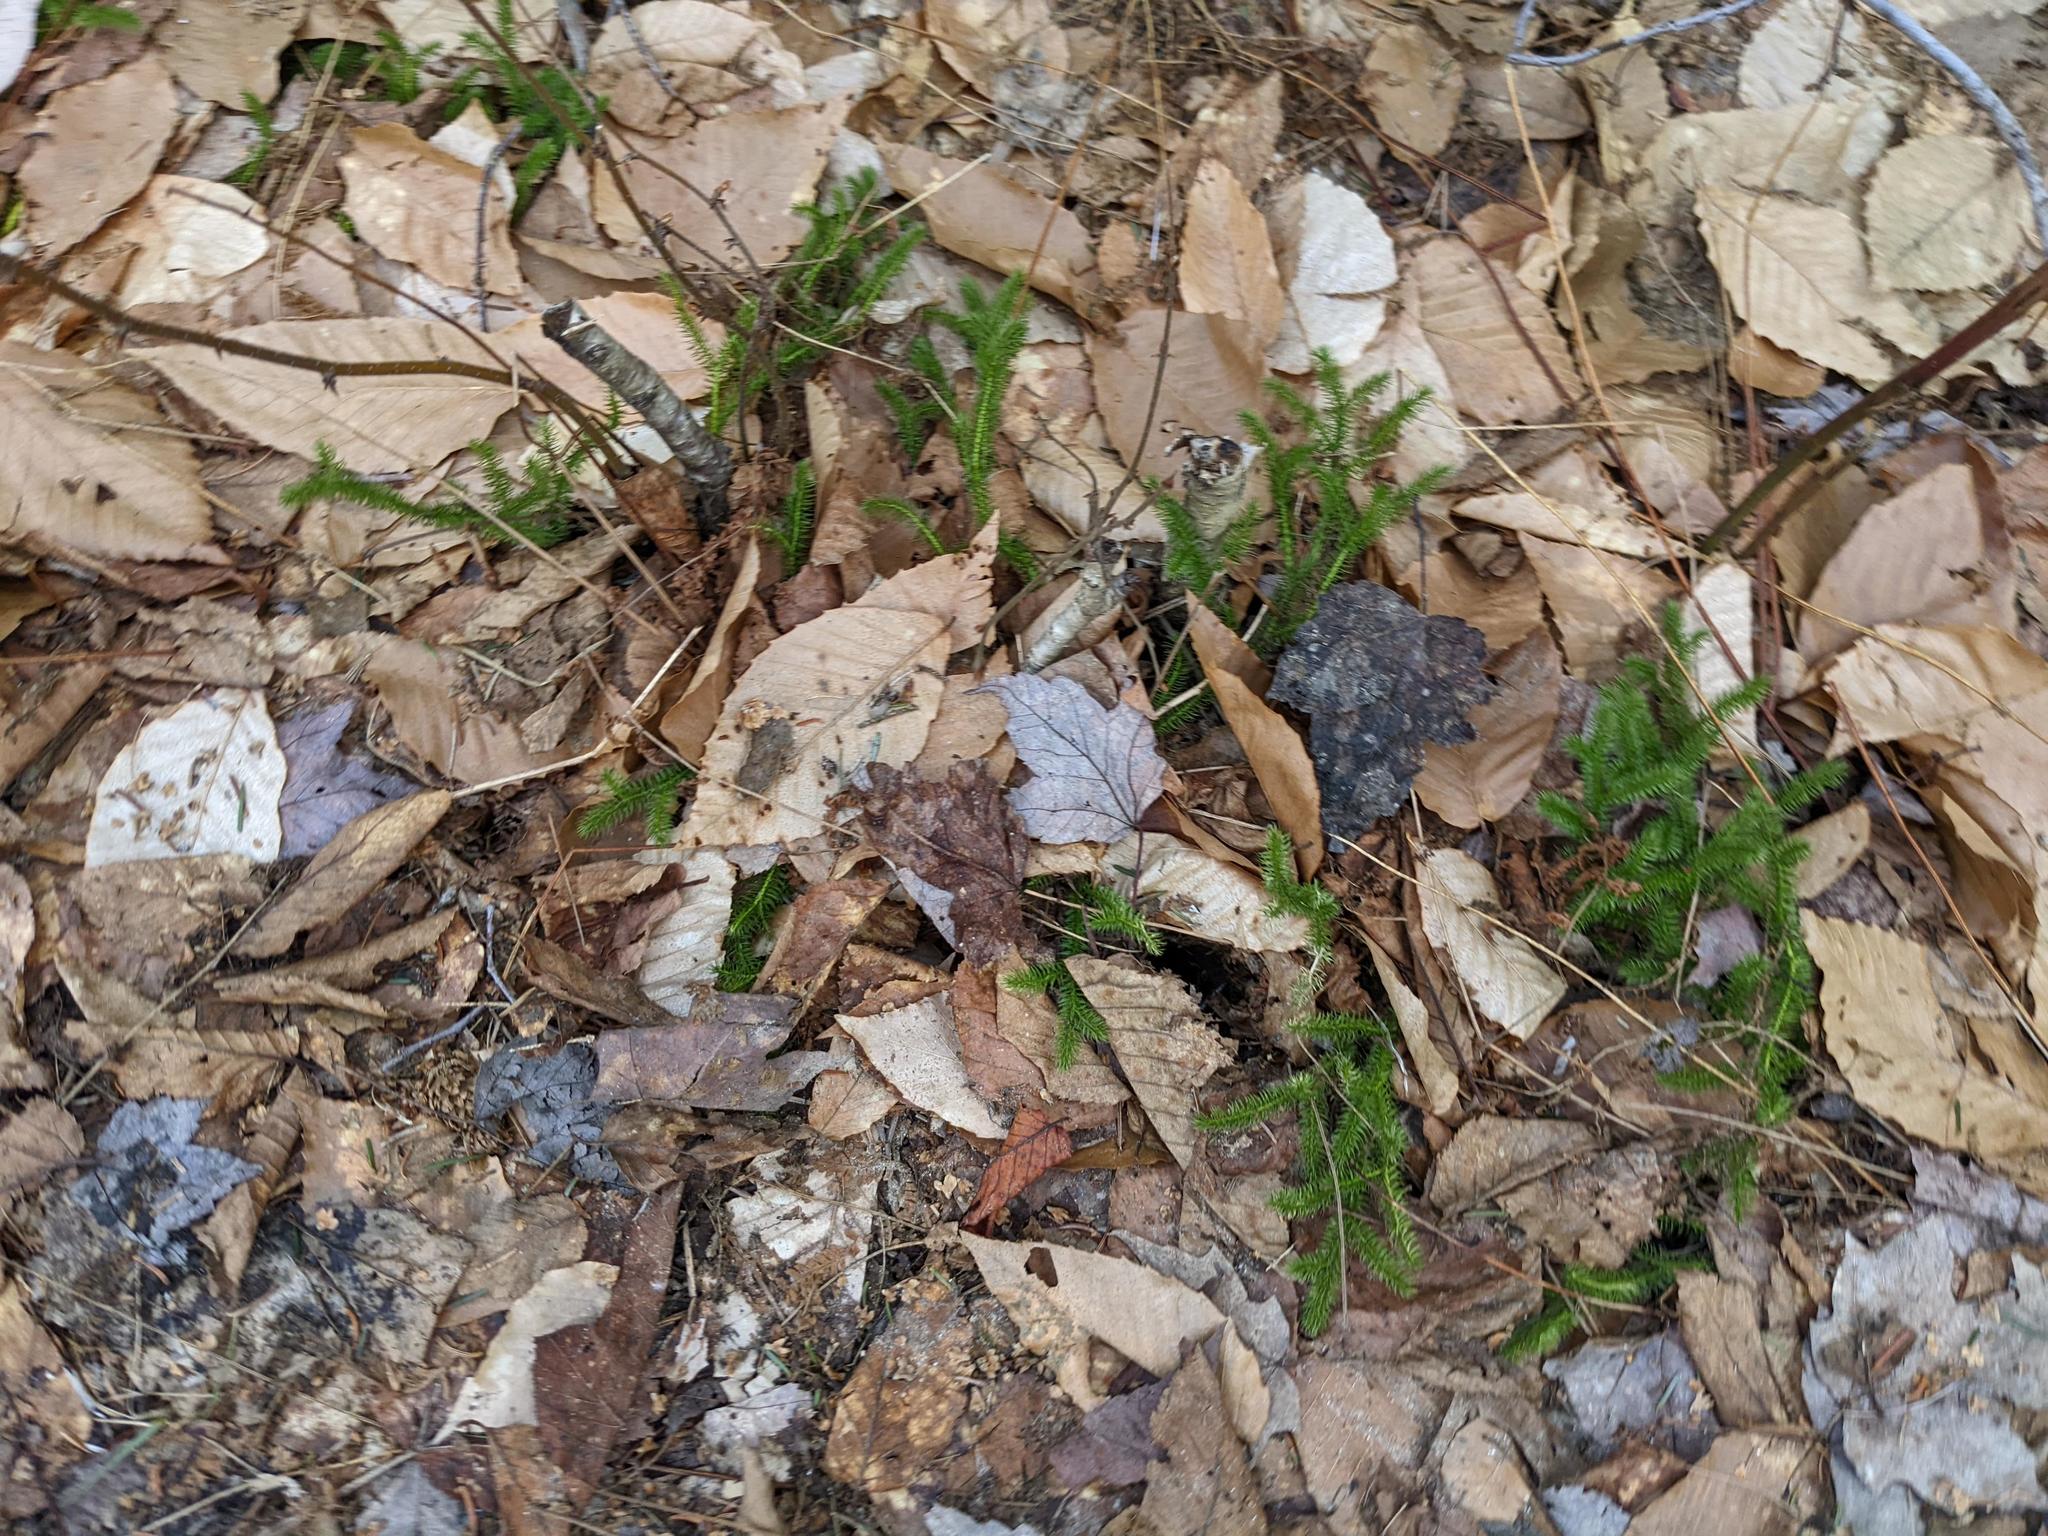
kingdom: Plantae
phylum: Tracheophyta
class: Magnoliopsida
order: Fagales
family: Fagaceae
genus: Fagus
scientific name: Fagus grandifolia
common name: American beech
